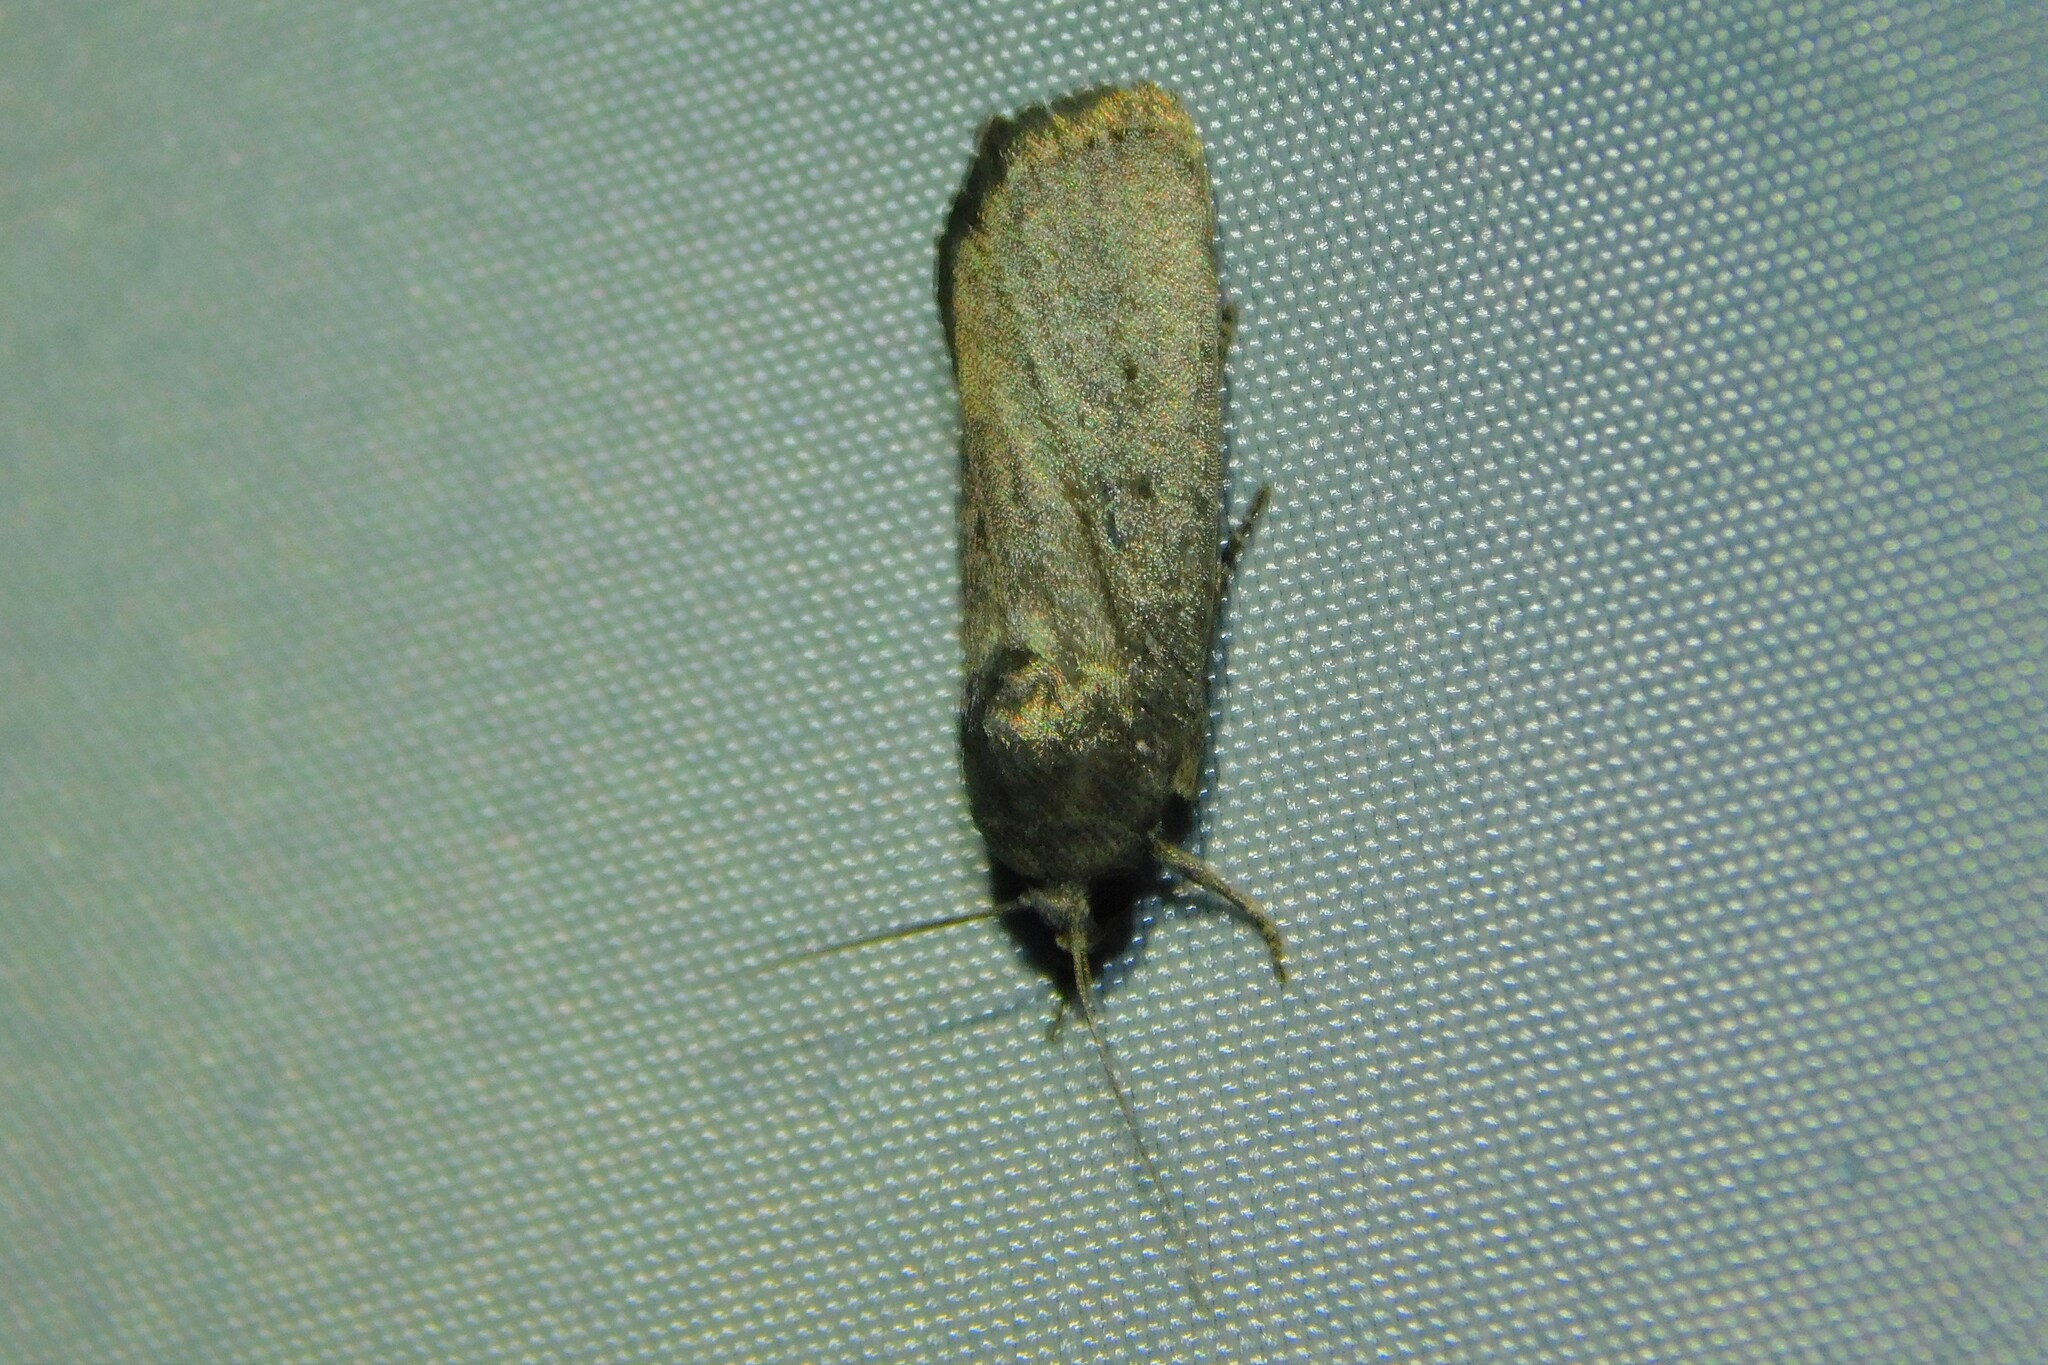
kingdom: Animalia
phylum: Arthropoda
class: Insecta
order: Lepidoptera
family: Noctuidae
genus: Athetis
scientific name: Athetis hospes
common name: Porter's rustic
